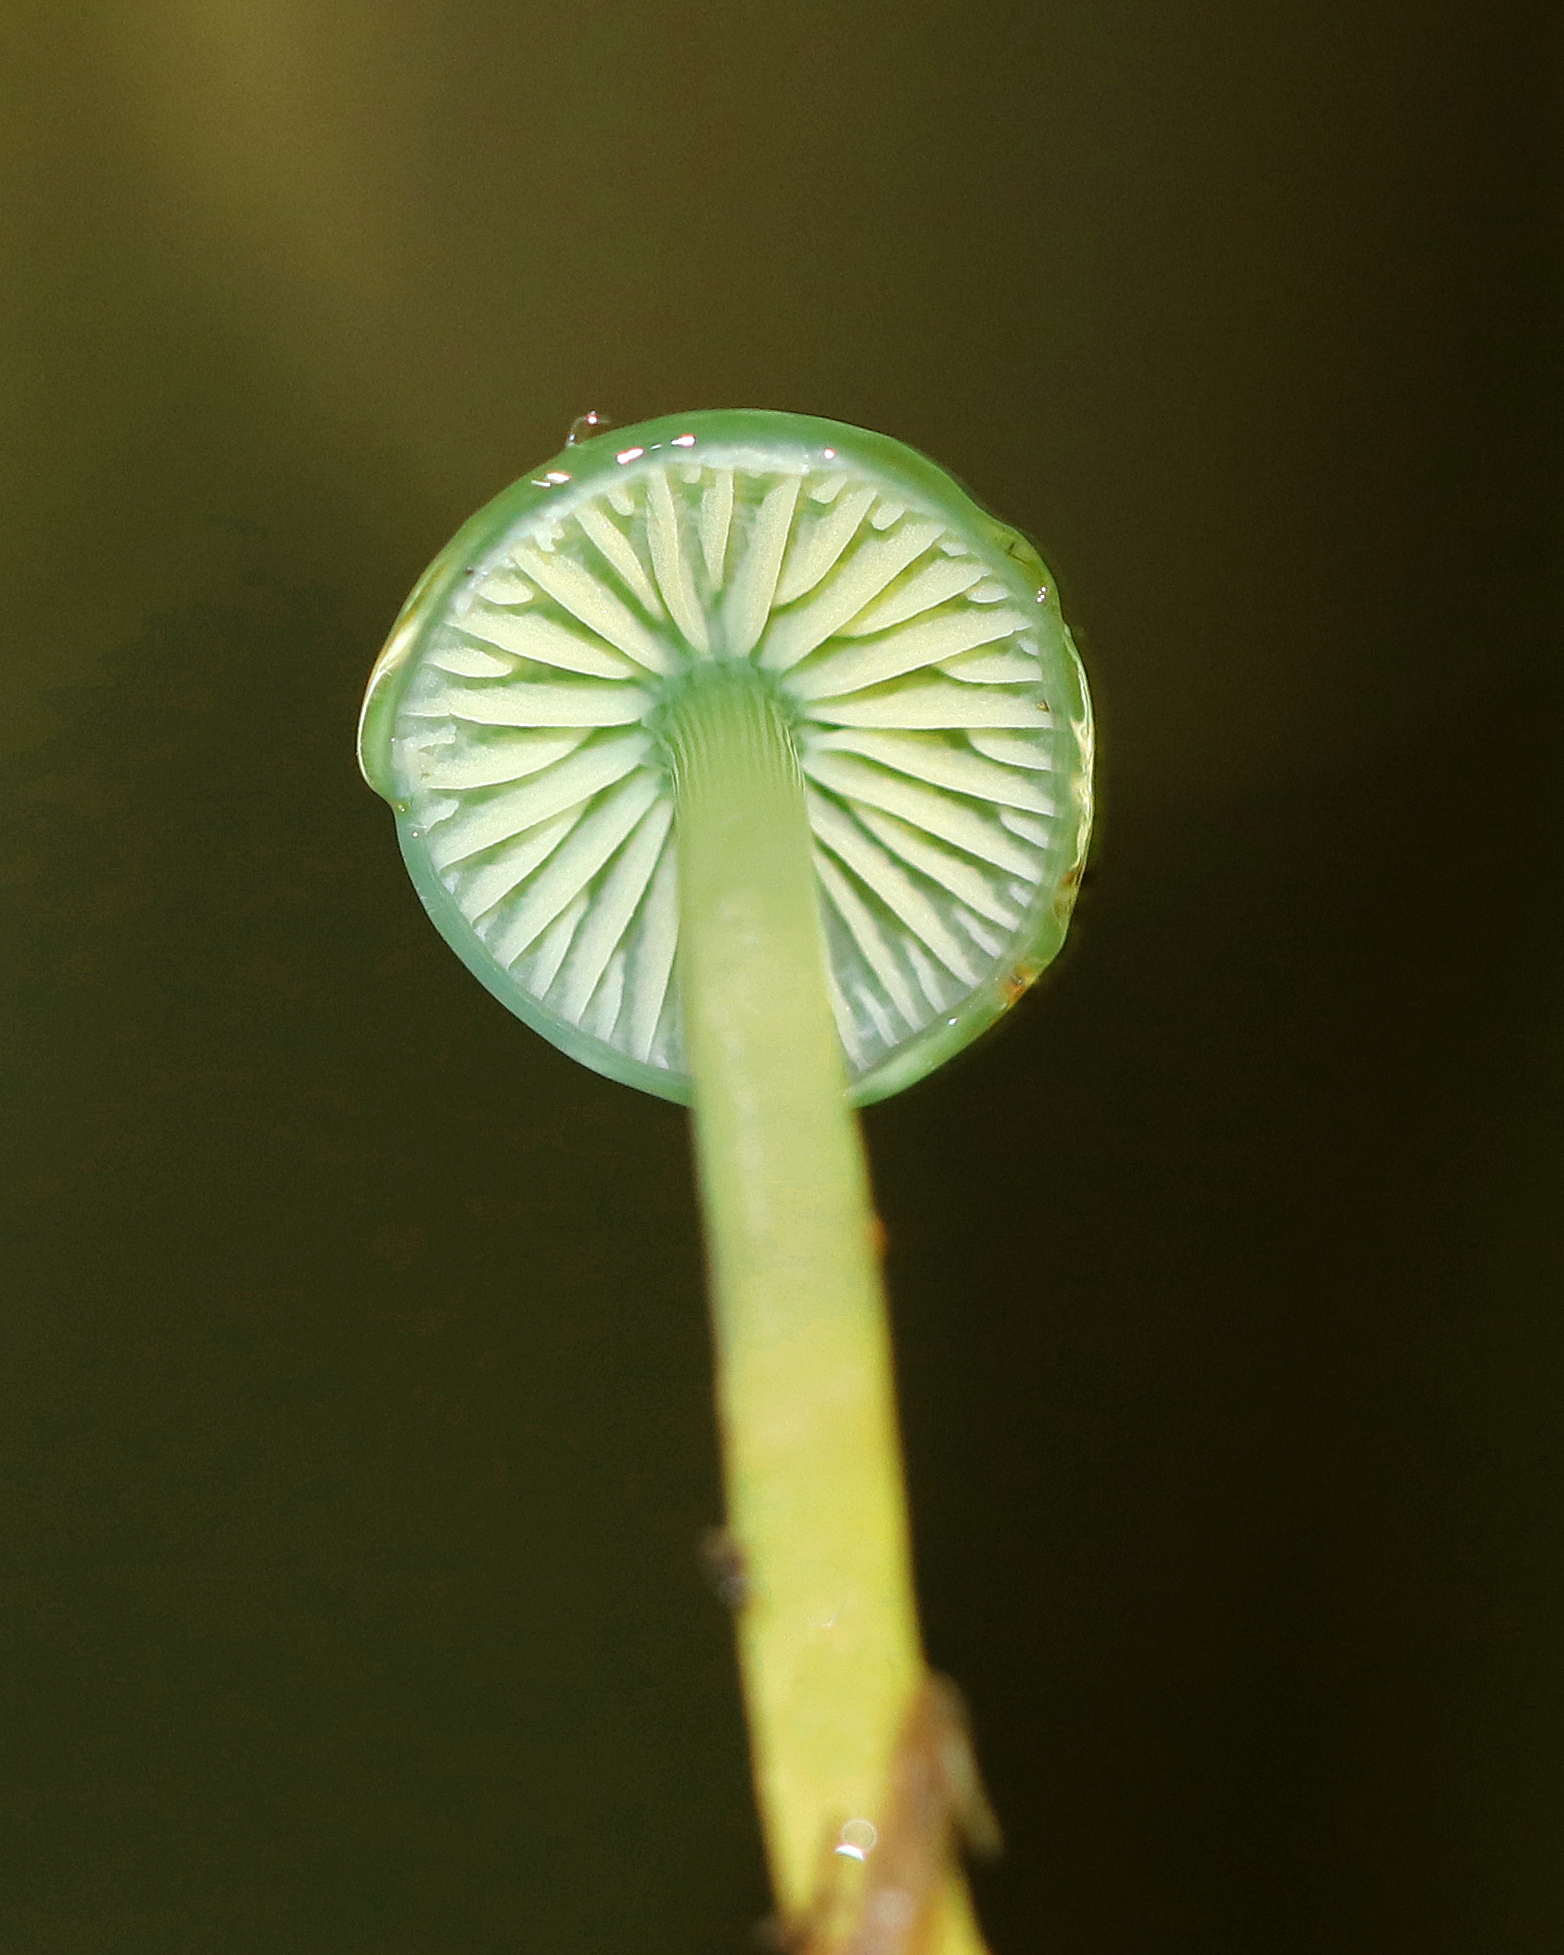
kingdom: Fungi
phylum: Basidiomycota
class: Agaricomycetes
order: Agaricales
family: Hygrophoraceae
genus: Gliophorus
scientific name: Gliophorus psittacinus
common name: Parrot wax-cap
